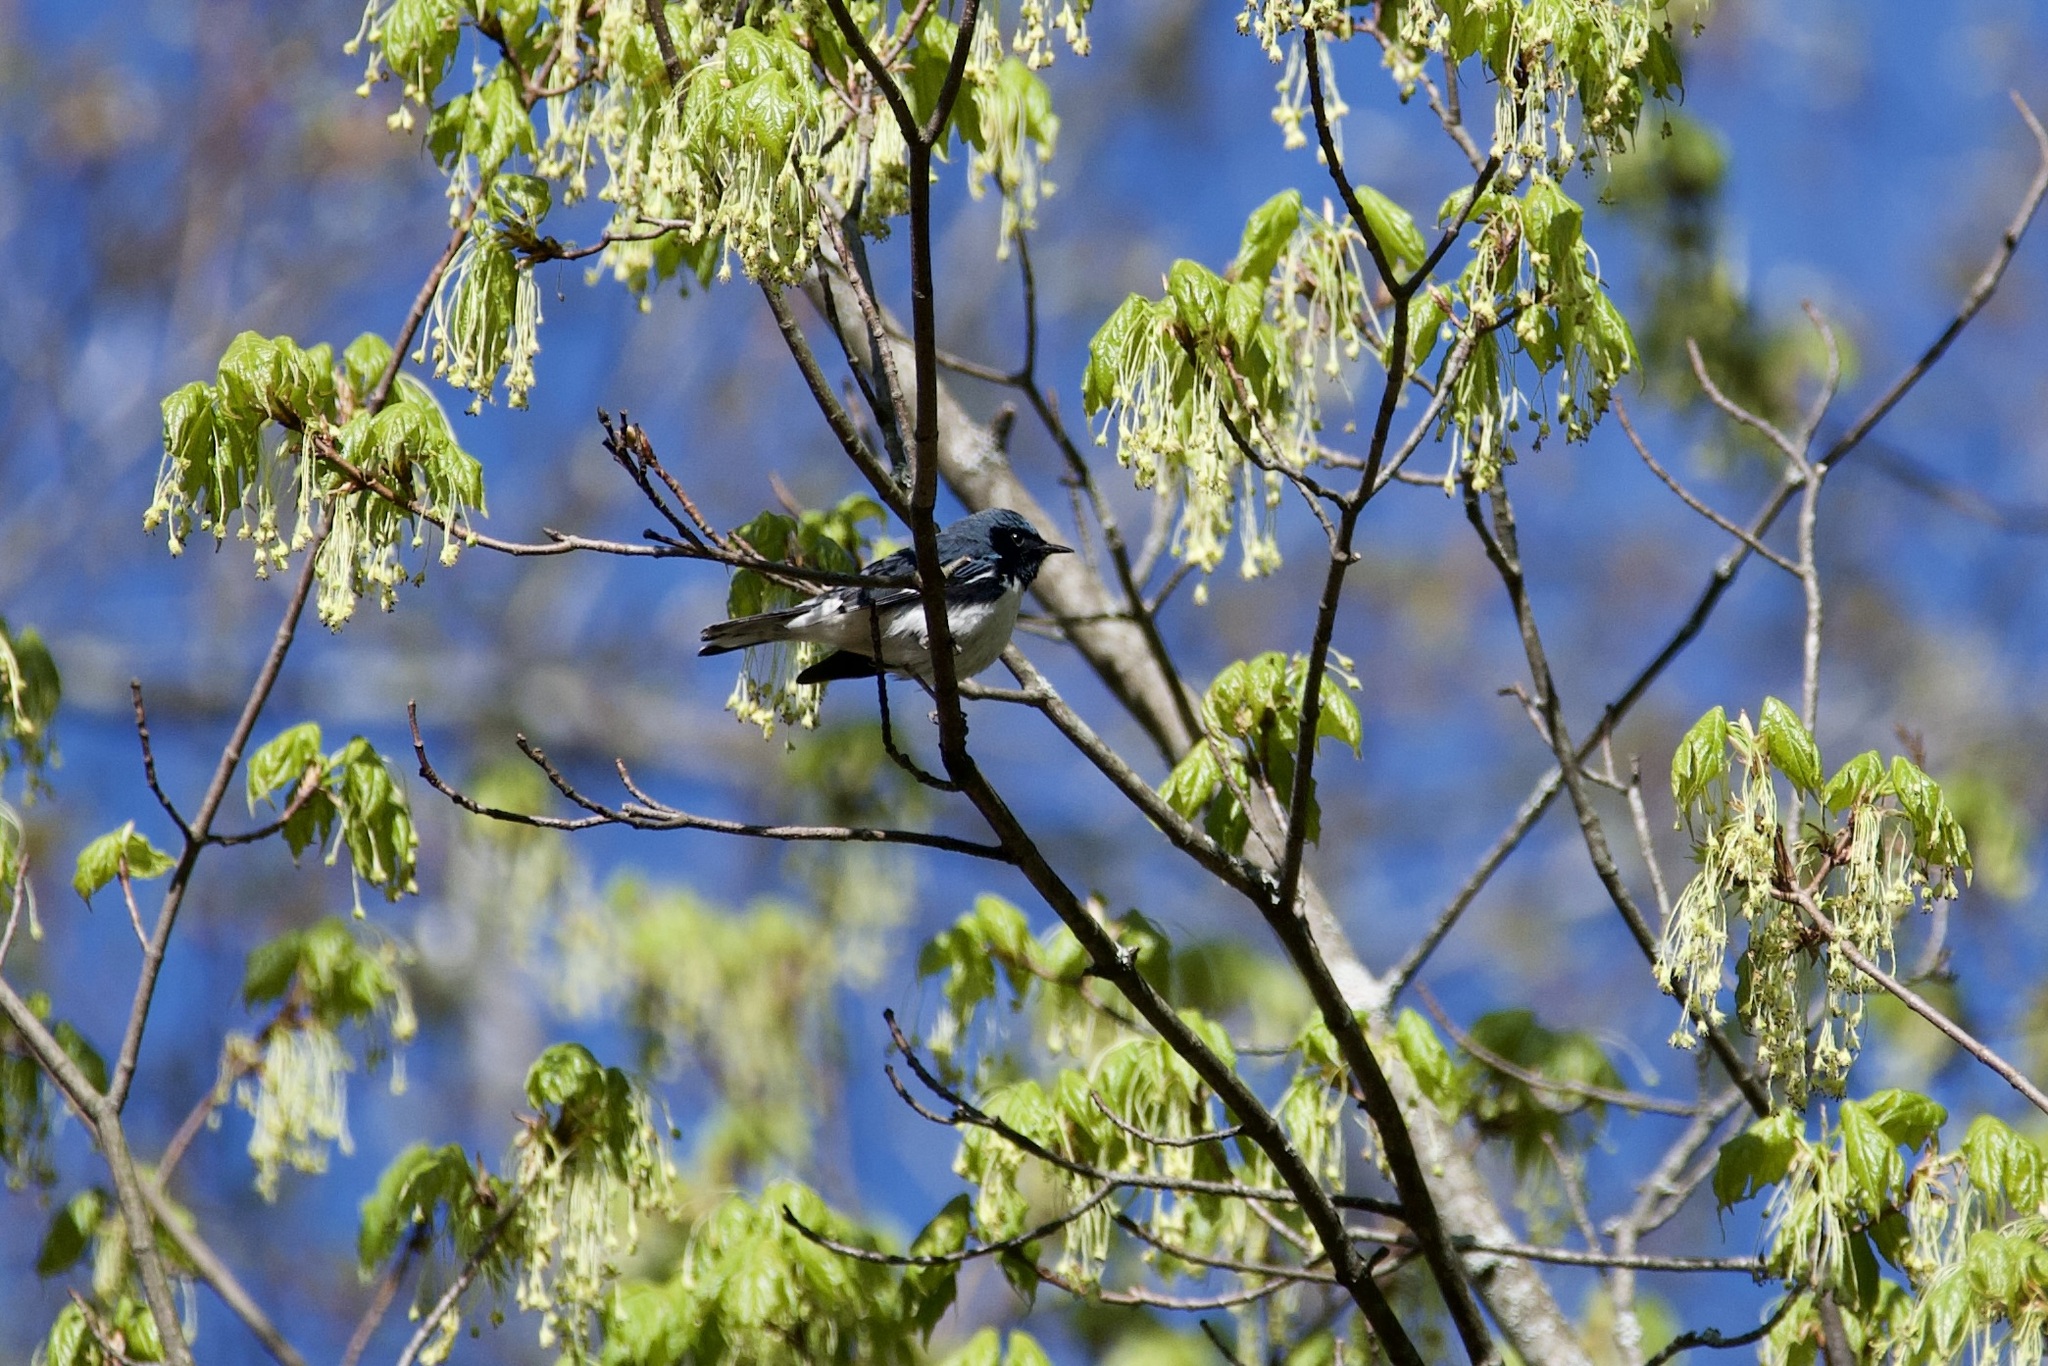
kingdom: Animalia
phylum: Chordata
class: Aves
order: Passeriformes
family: Parulidae
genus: Setophaga
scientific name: Setophaga caerulescens
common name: Black-throated blue warbler
